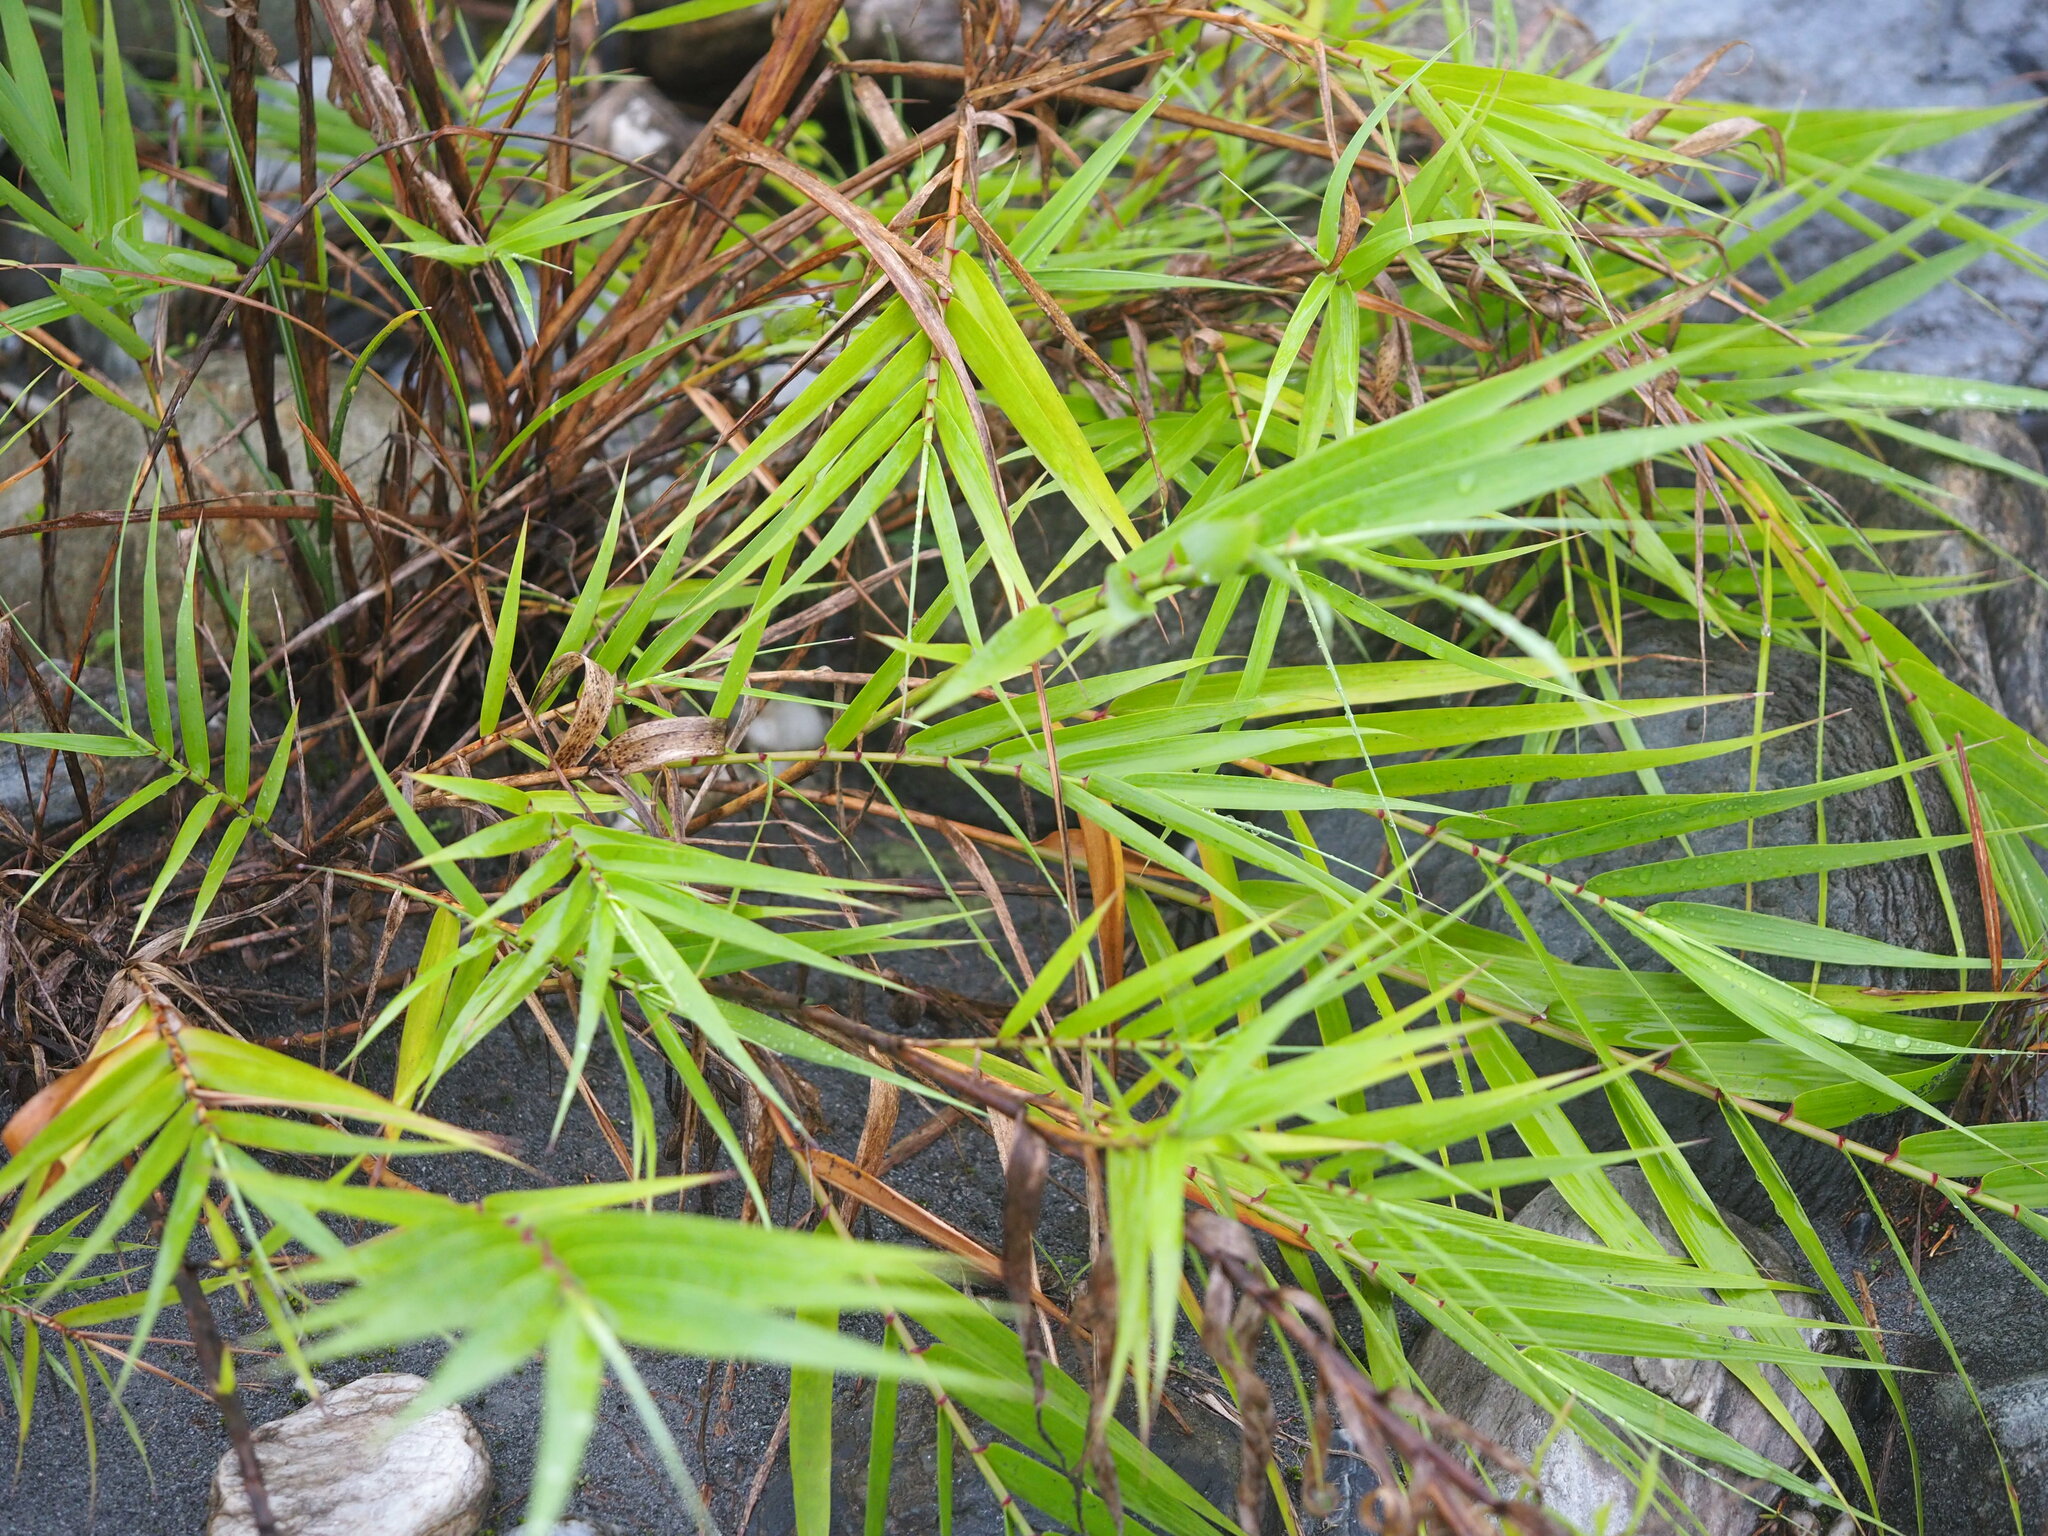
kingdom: Plantae
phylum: Tracheophyta
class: Liliopsida
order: Poales
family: Poaceae
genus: Arundo
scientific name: Arundo formosana
